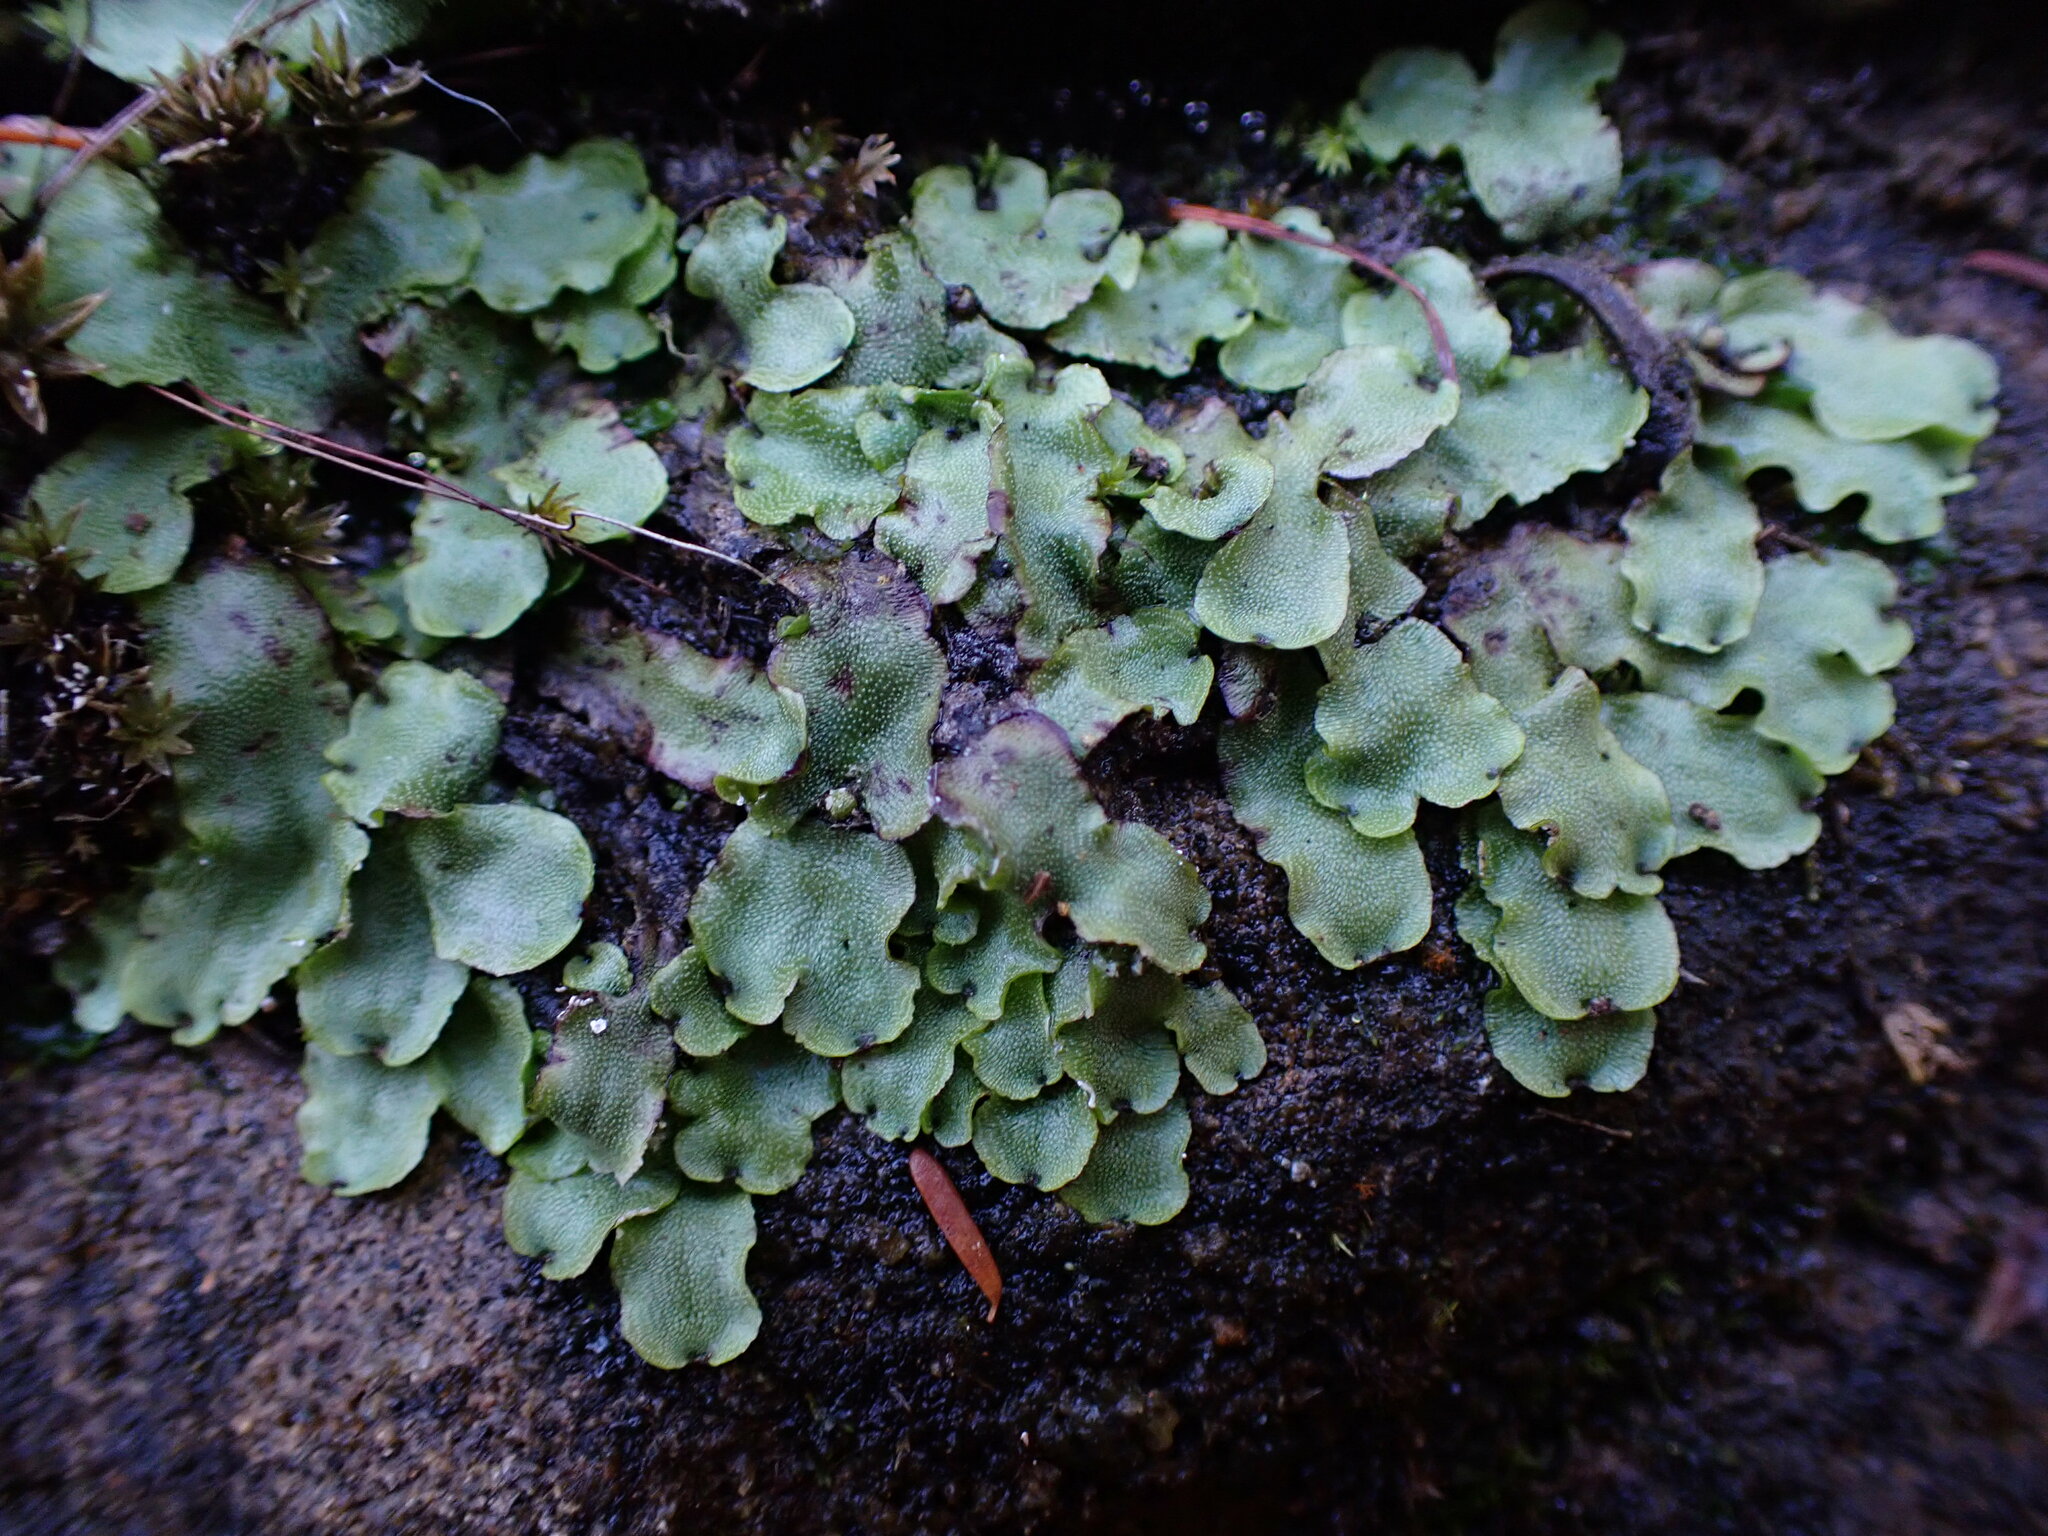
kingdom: Plantae
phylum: Marchantiophyta
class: Marchantiopsida
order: Marchantiales
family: Marchantiaceae
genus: Marchantia
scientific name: Marchantia quadrata
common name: Narrow mushroom-headed liverwort
